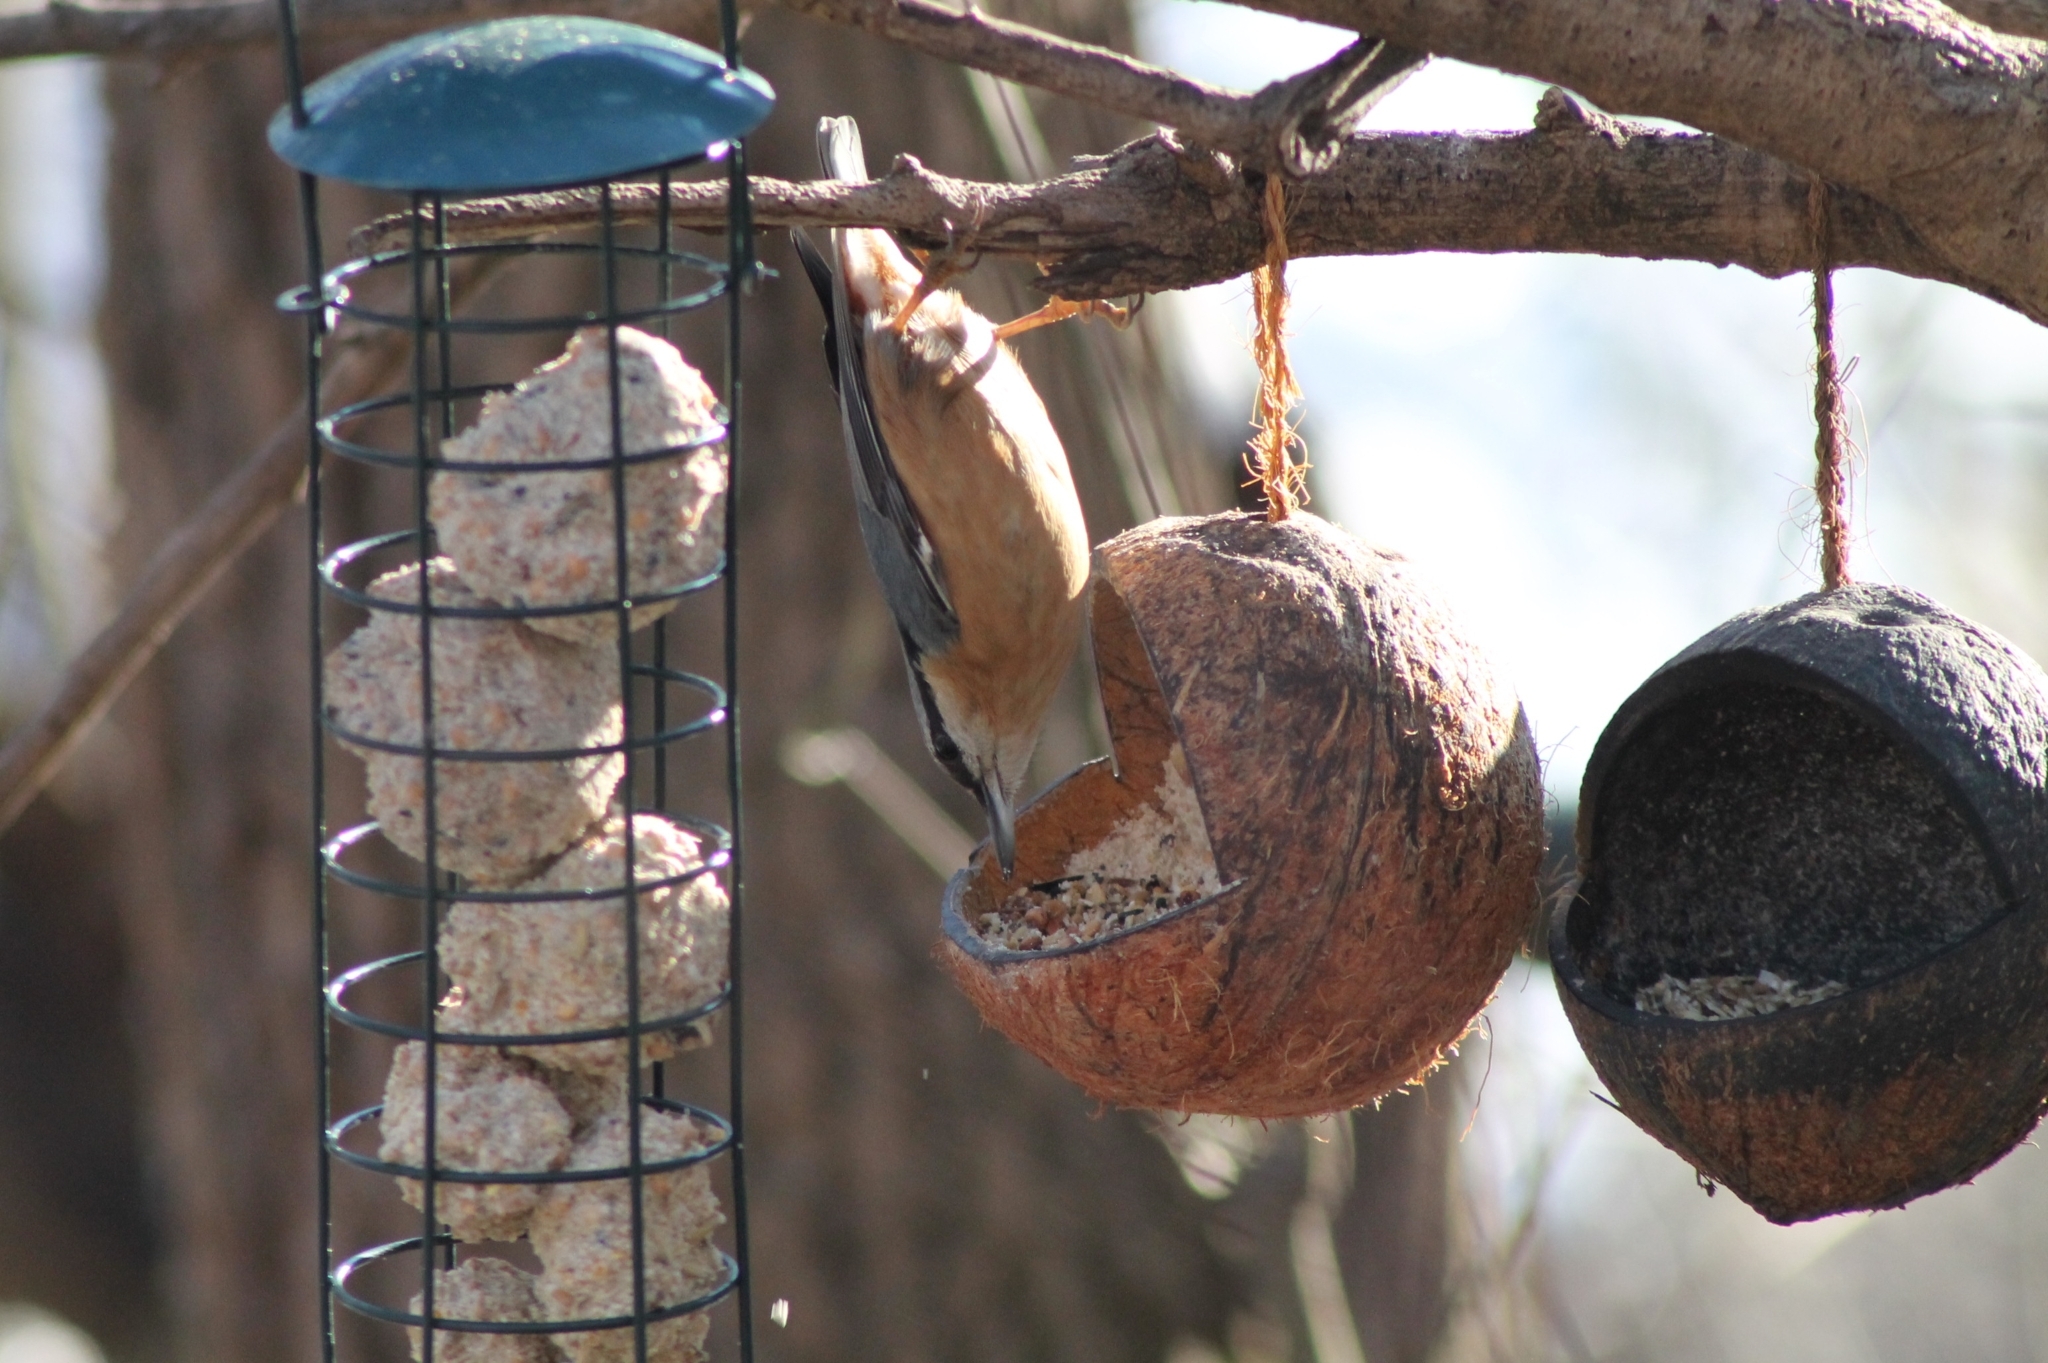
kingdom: Animalia
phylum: Chordata
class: Aves
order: Passeriformes
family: Sittidae
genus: Sitta
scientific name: Sitta europaea
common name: Eurasian nuthatch
